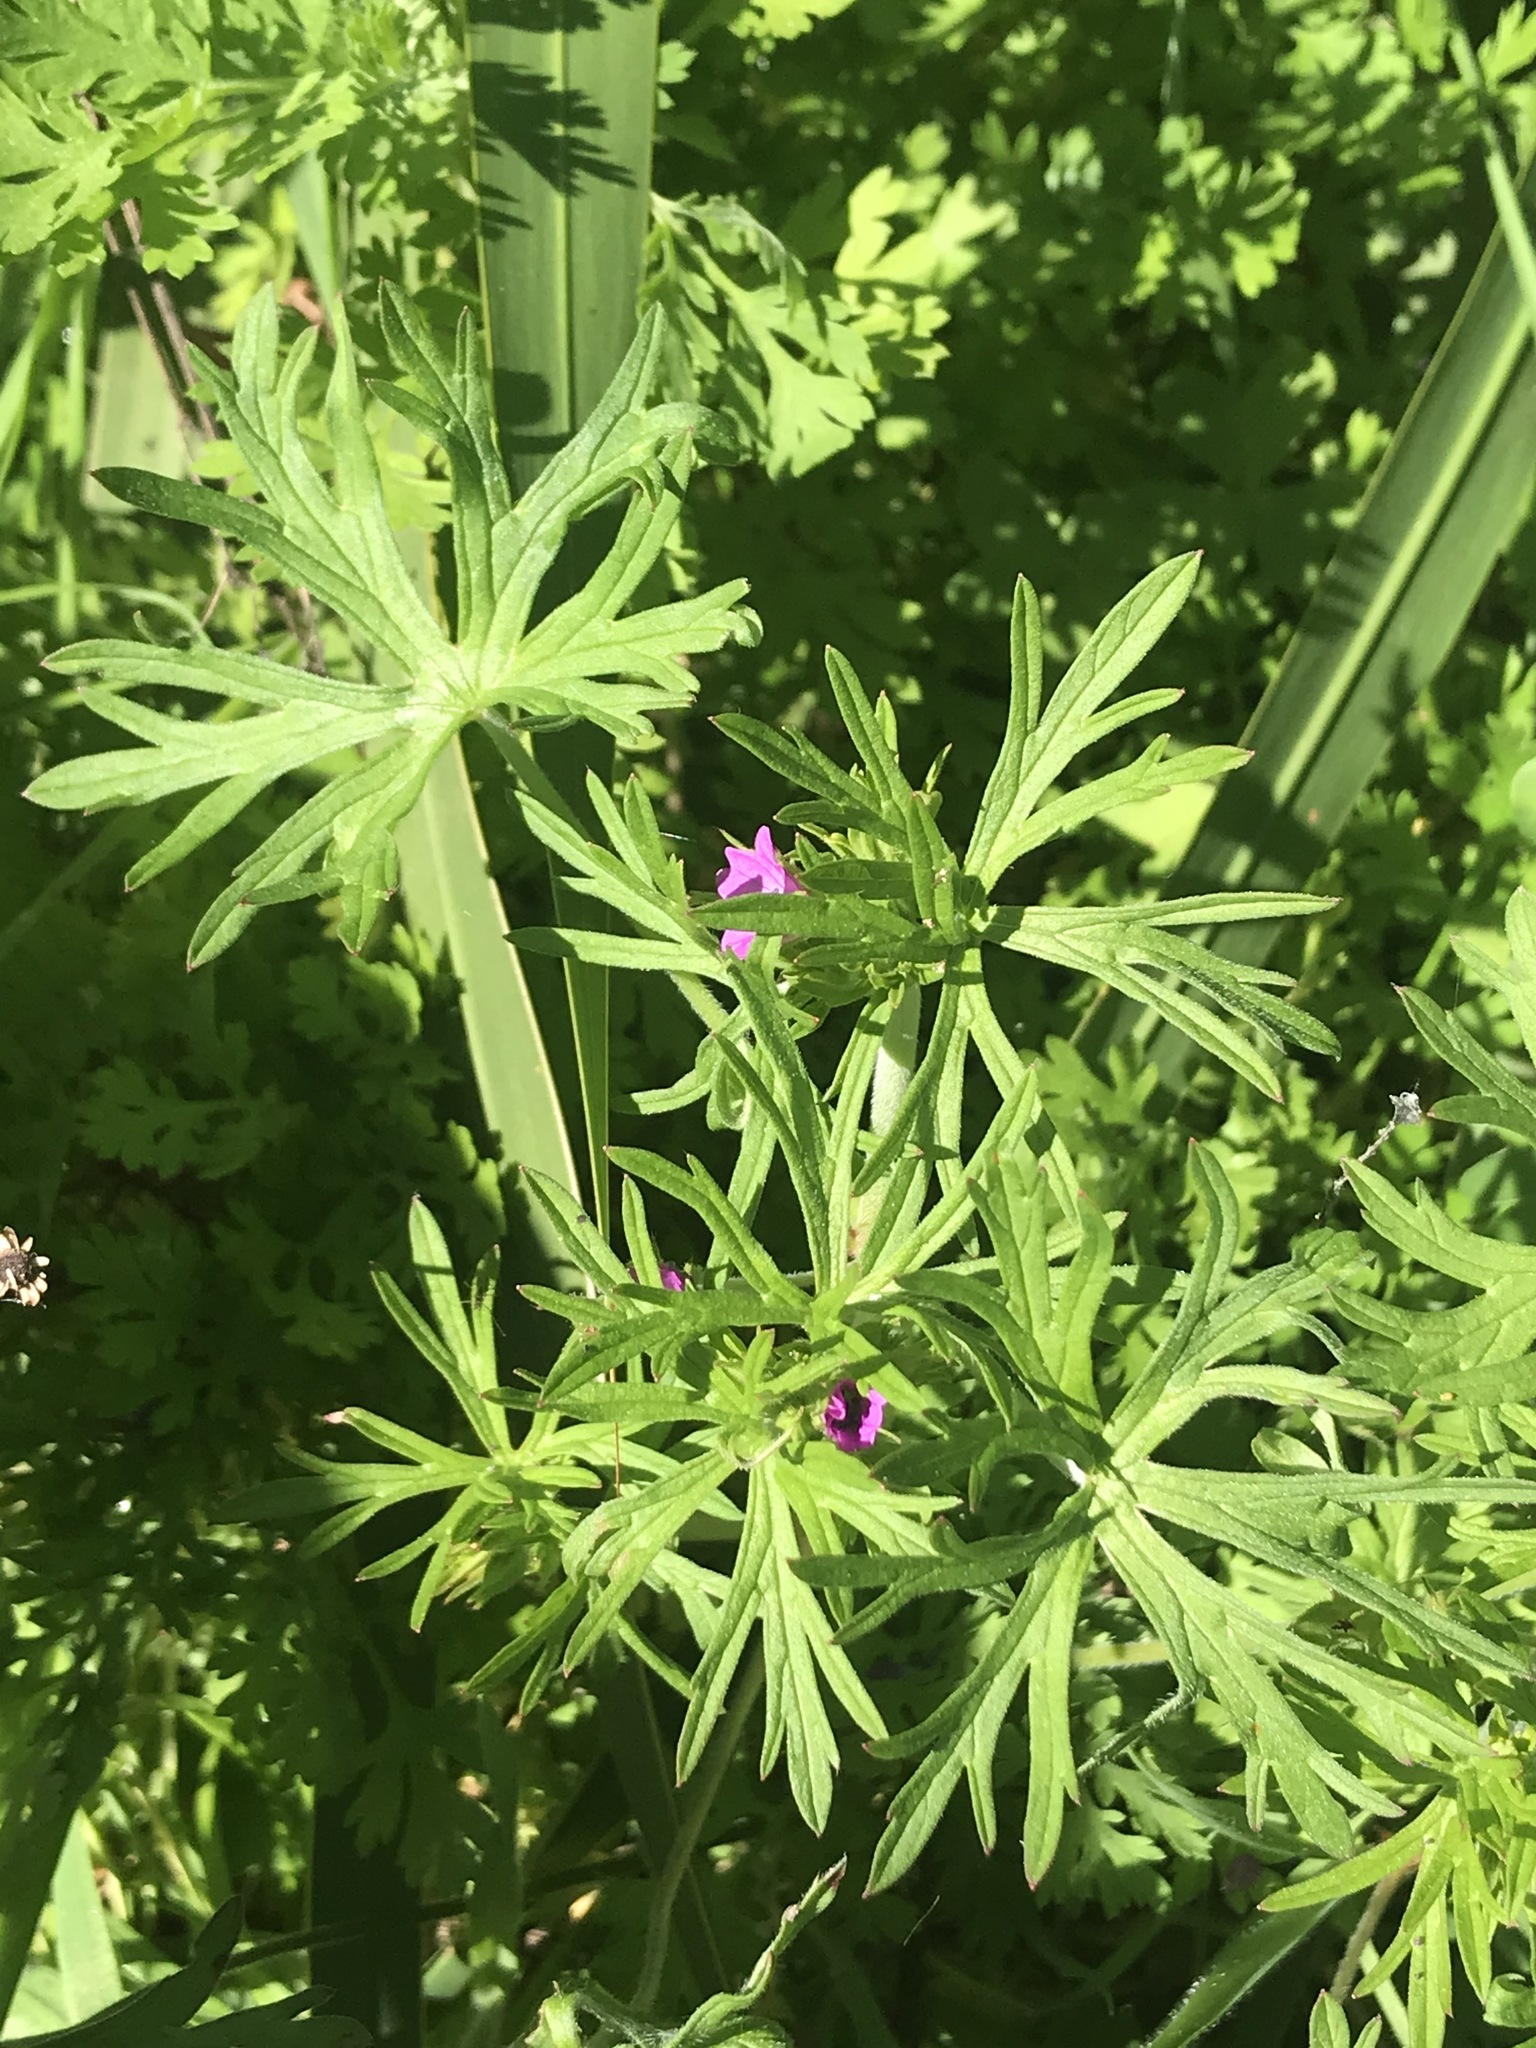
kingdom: Plantae
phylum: Tracheophyta
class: Magnoliopsida
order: Geraniales
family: Geraniaceae
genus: Geranium
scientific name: Geranium dissectum
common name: Cut-leaved crane's-bill
